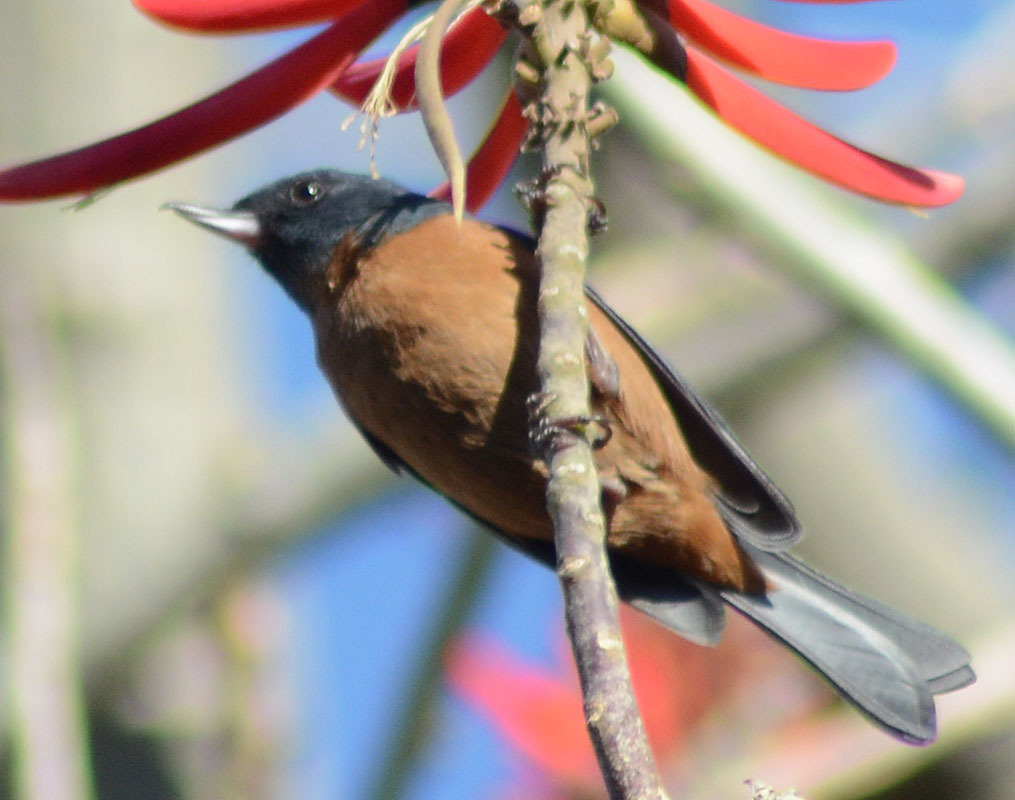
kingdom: Animalia
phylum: Chordata
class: Aves
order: Passeriformes
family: Thraupidae
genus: Diglossa
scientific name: Diglossa baritula
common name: Cinnamon-bellied flowerpiercer
